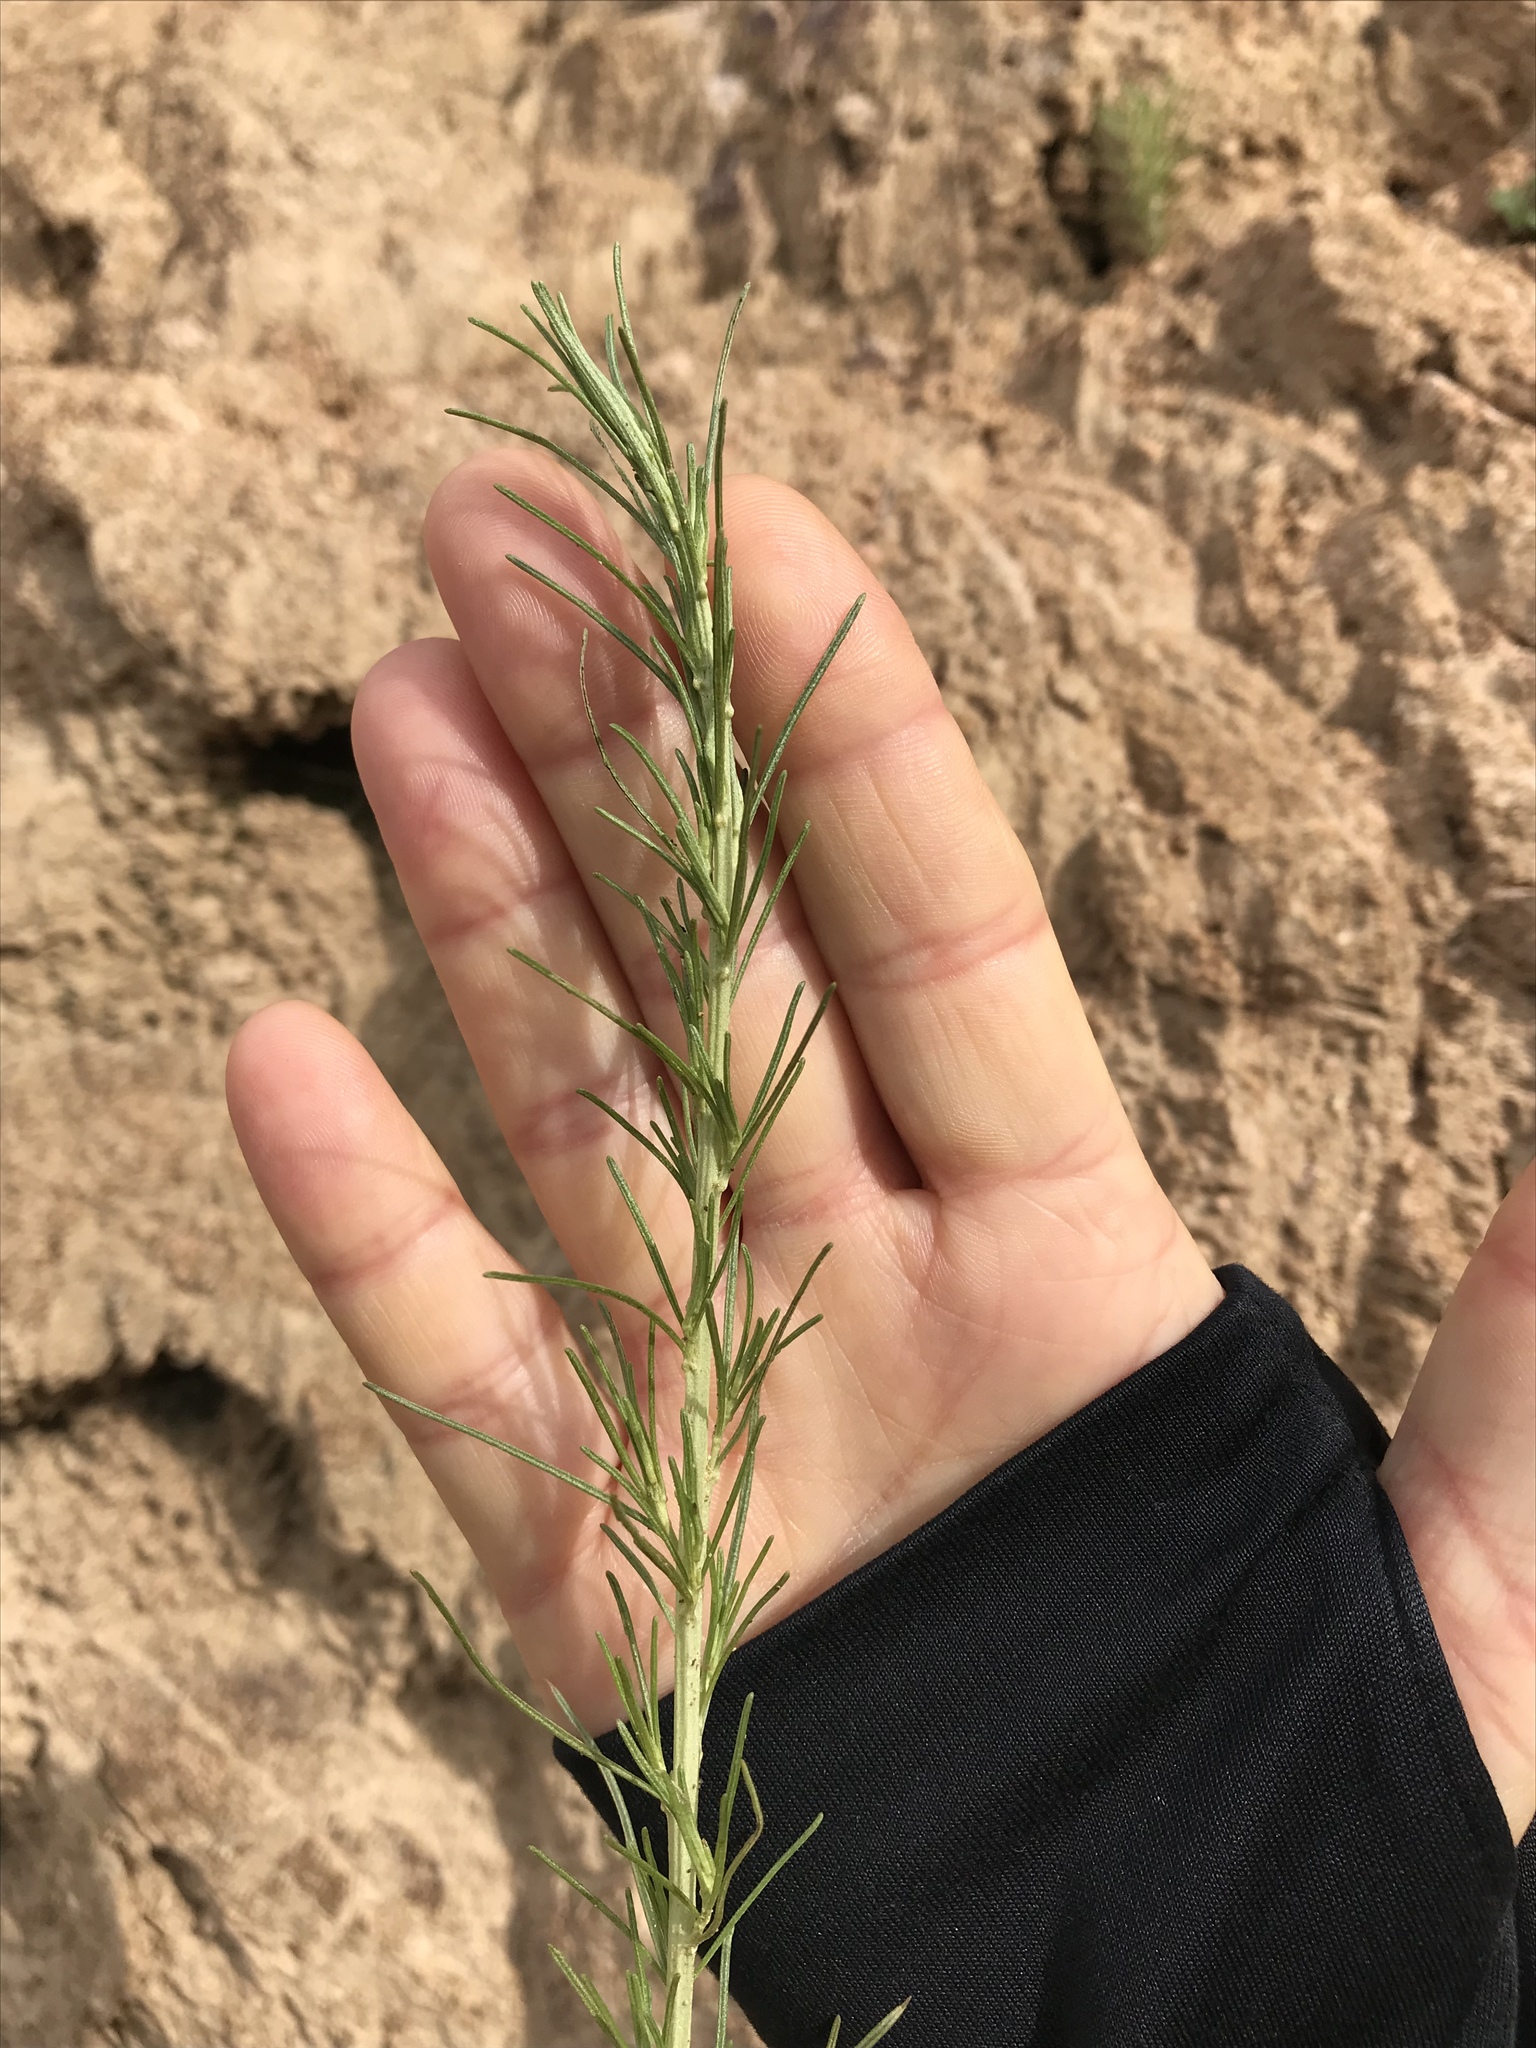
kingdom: Plantae
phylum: Tracheophyta
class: Magnoliopsida
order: Asterales
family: Asteraceae
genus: Artemisia
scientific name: Artemisia californica
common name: California sagebrush
